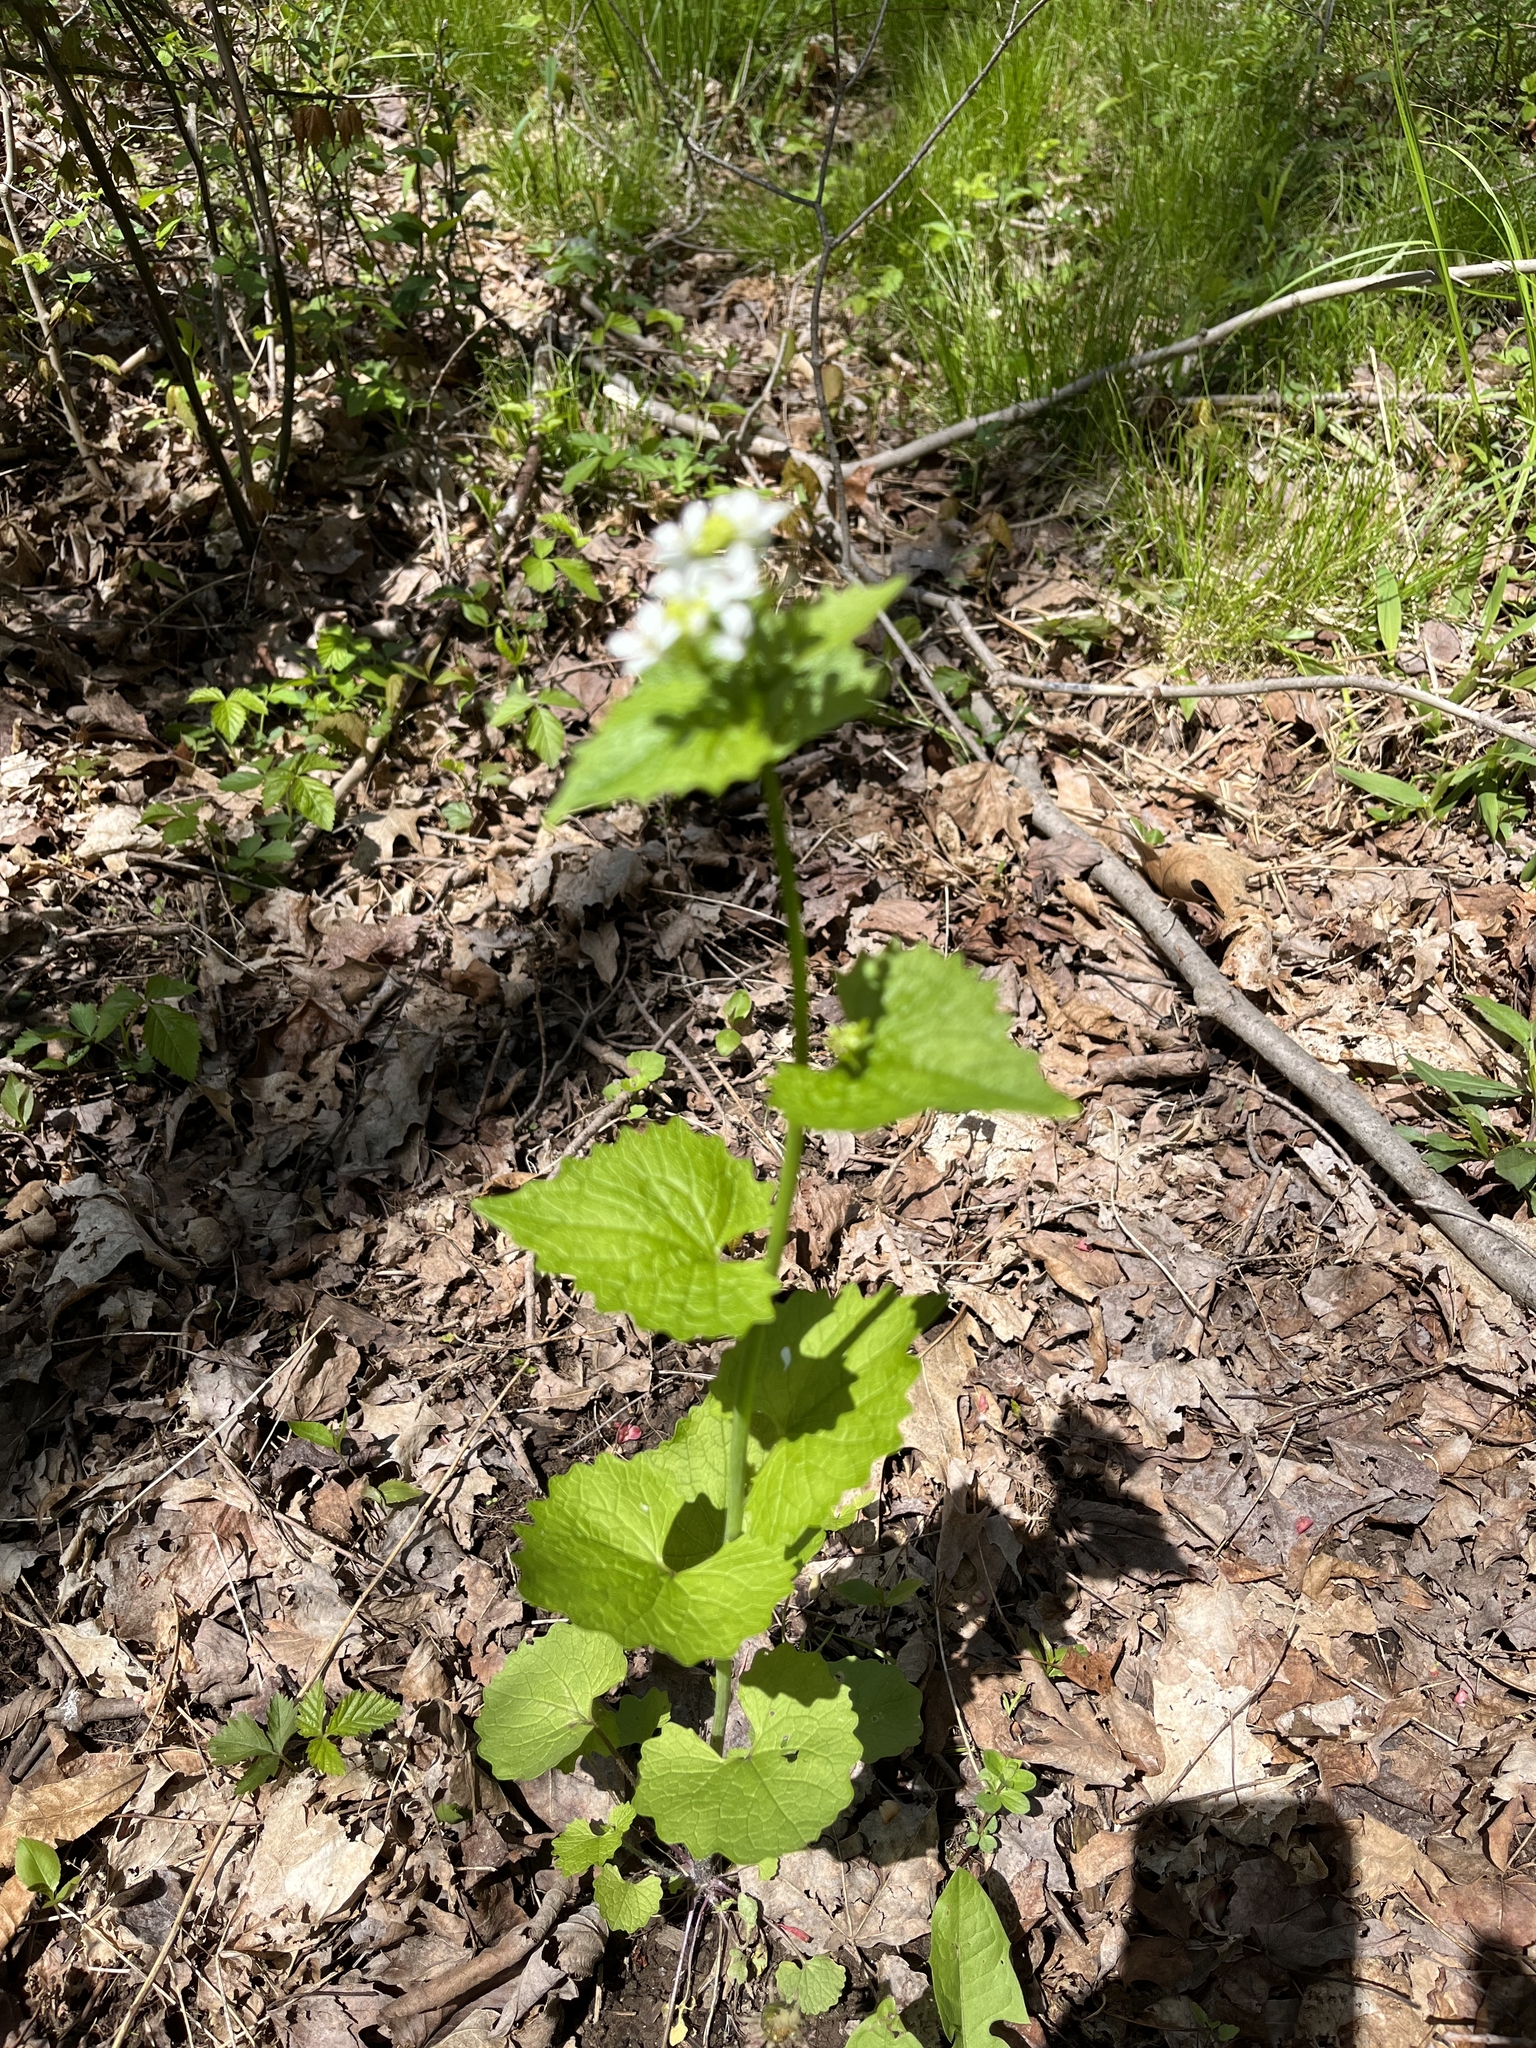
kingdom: Plantae
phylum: Tracheophyta
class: Magnoliopsida
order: Brassicales
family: Brassicaceae
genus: Alliaria
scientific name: Alliaria petiolata
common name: Garlic mustard
